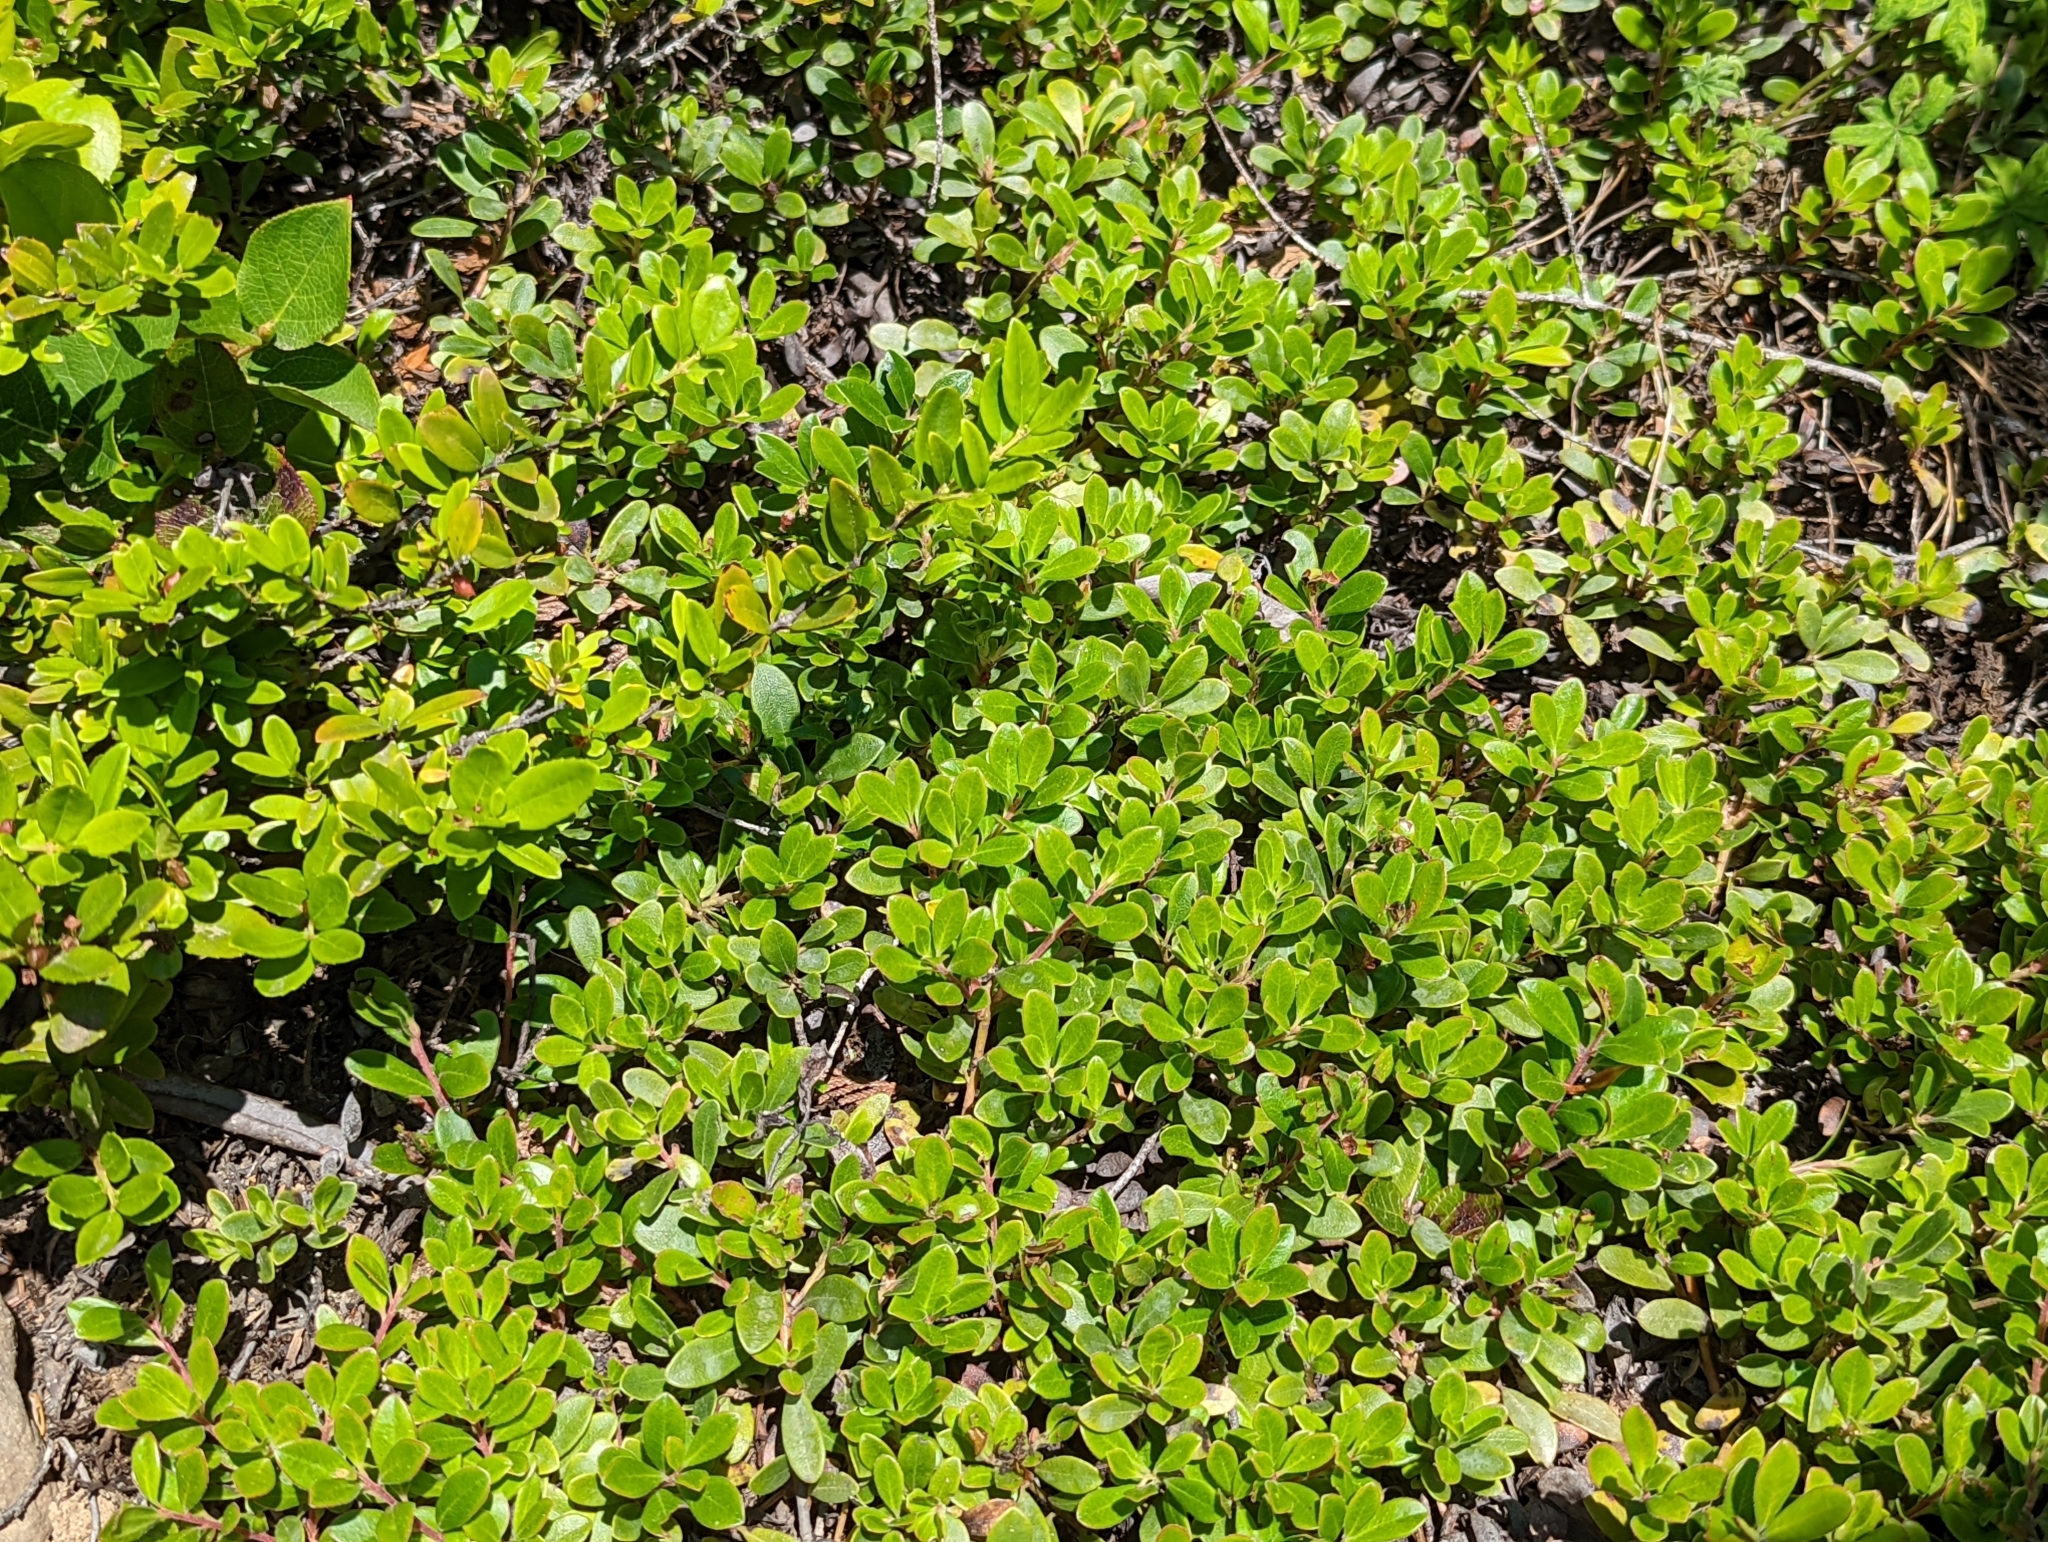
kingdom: Plantae
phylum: Tracheophyta
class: Magnoliopsida
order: Ericales
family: Ericaceae
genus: Arctostaphylos
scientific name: Arctostaphylos uva-ursi
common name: Bearberry
